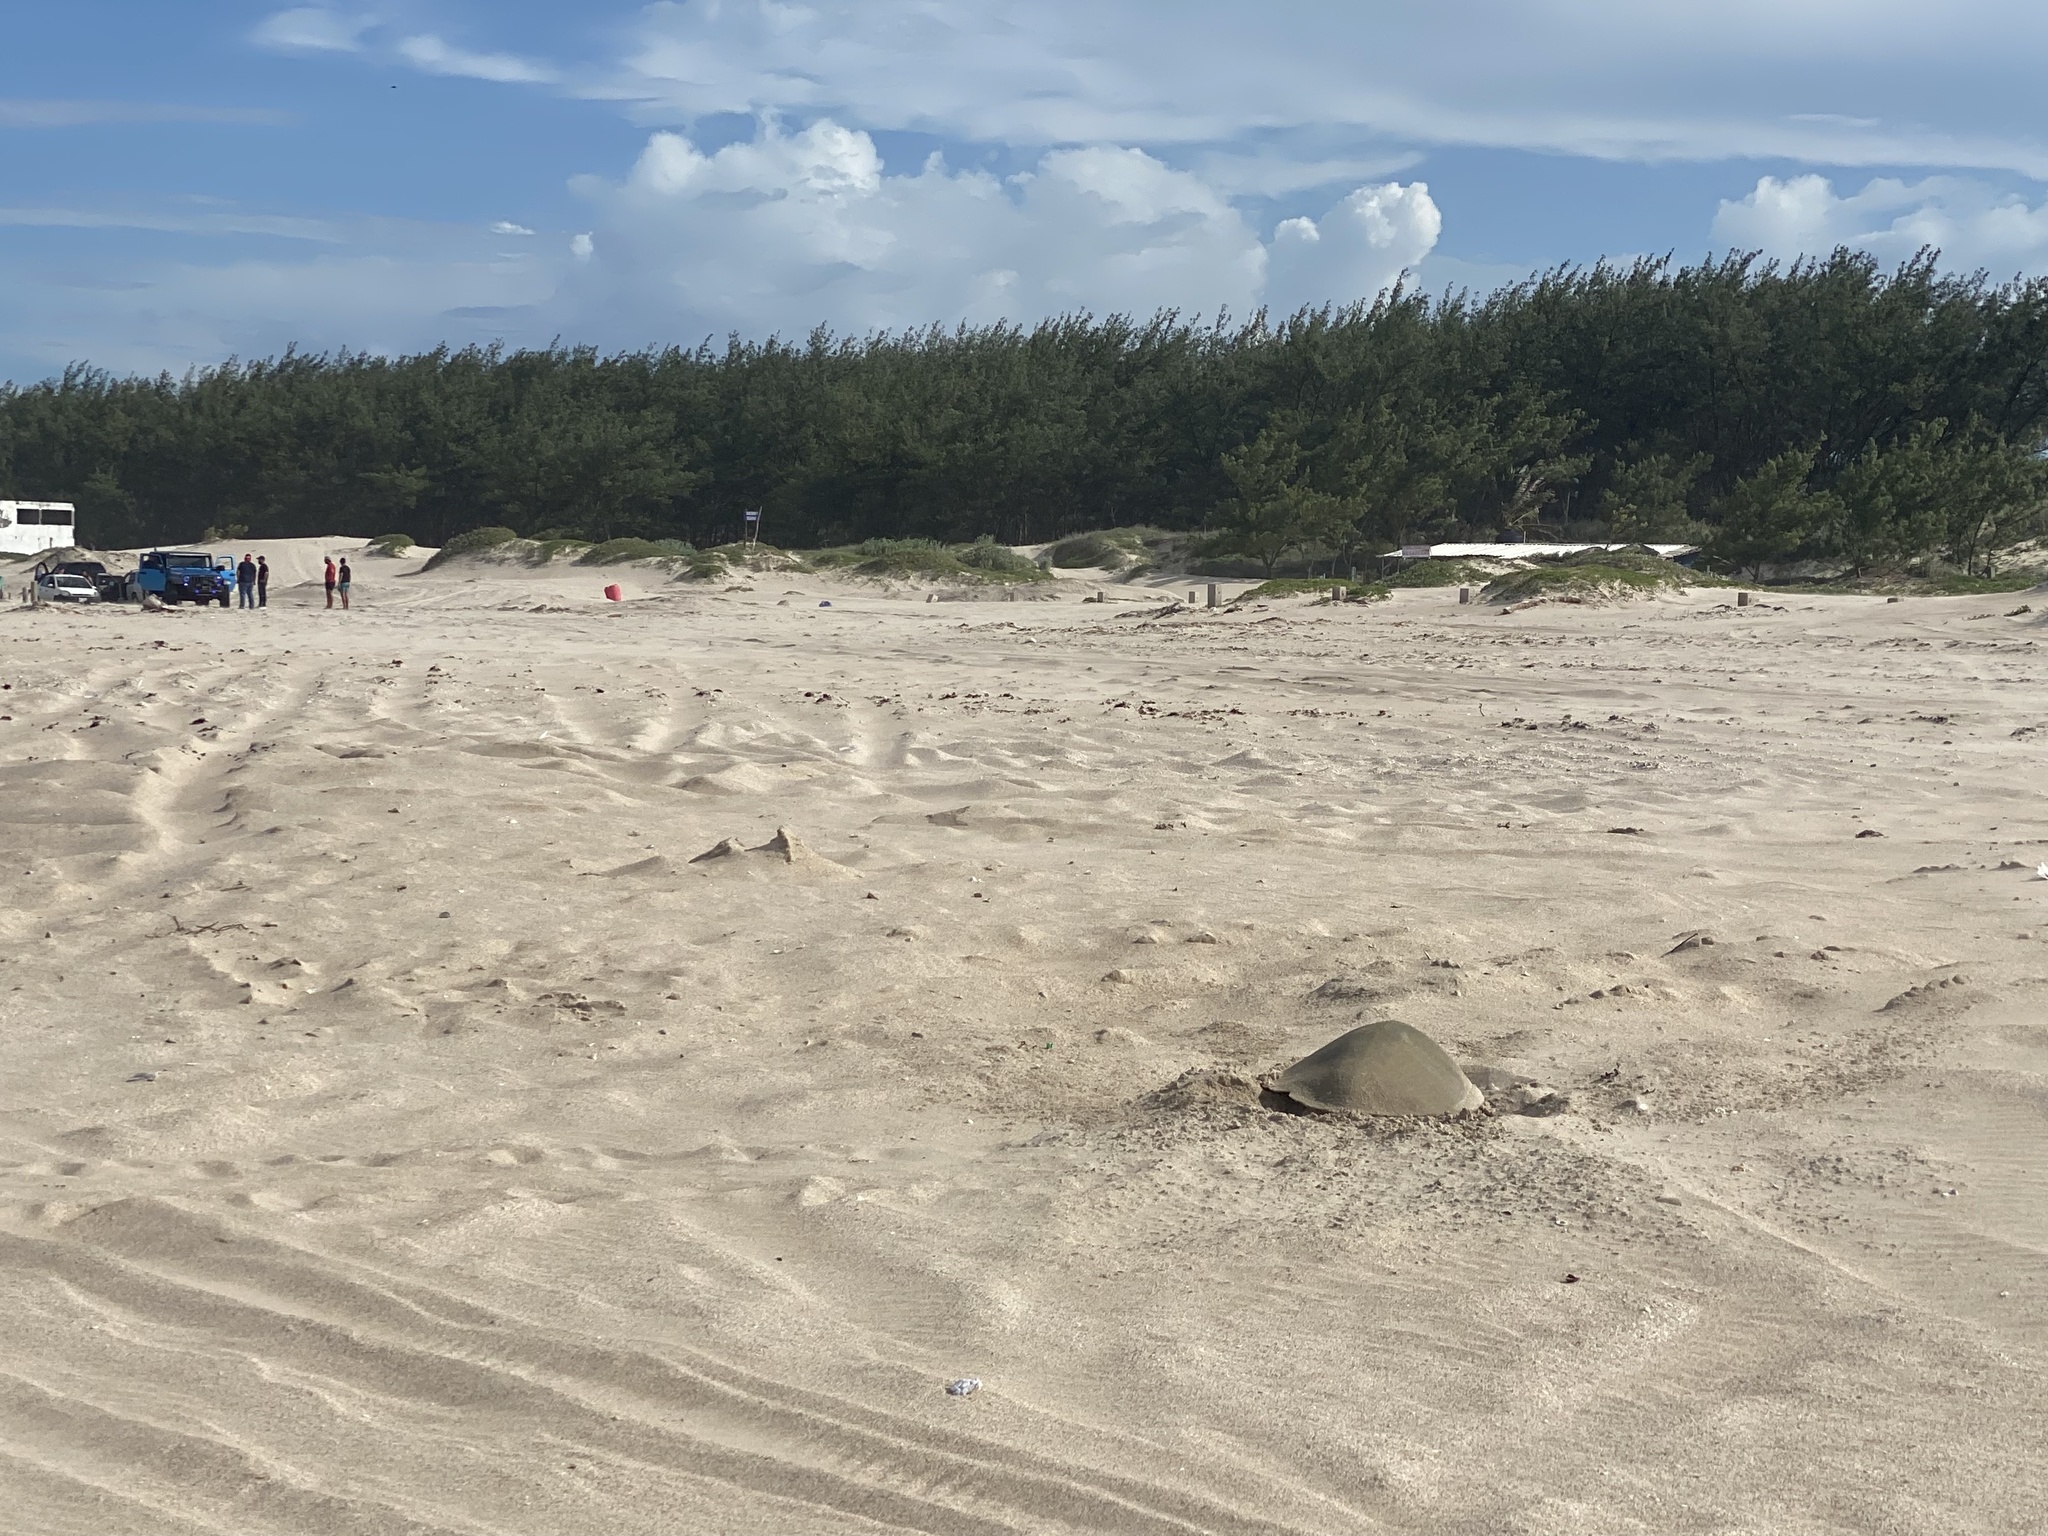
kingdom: Animalia
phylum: Chordata
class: Testudines
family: Cheloniidae
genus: Lepidochelys
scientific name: Lepidochelys kempii
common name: Kemp's ridley turtle
